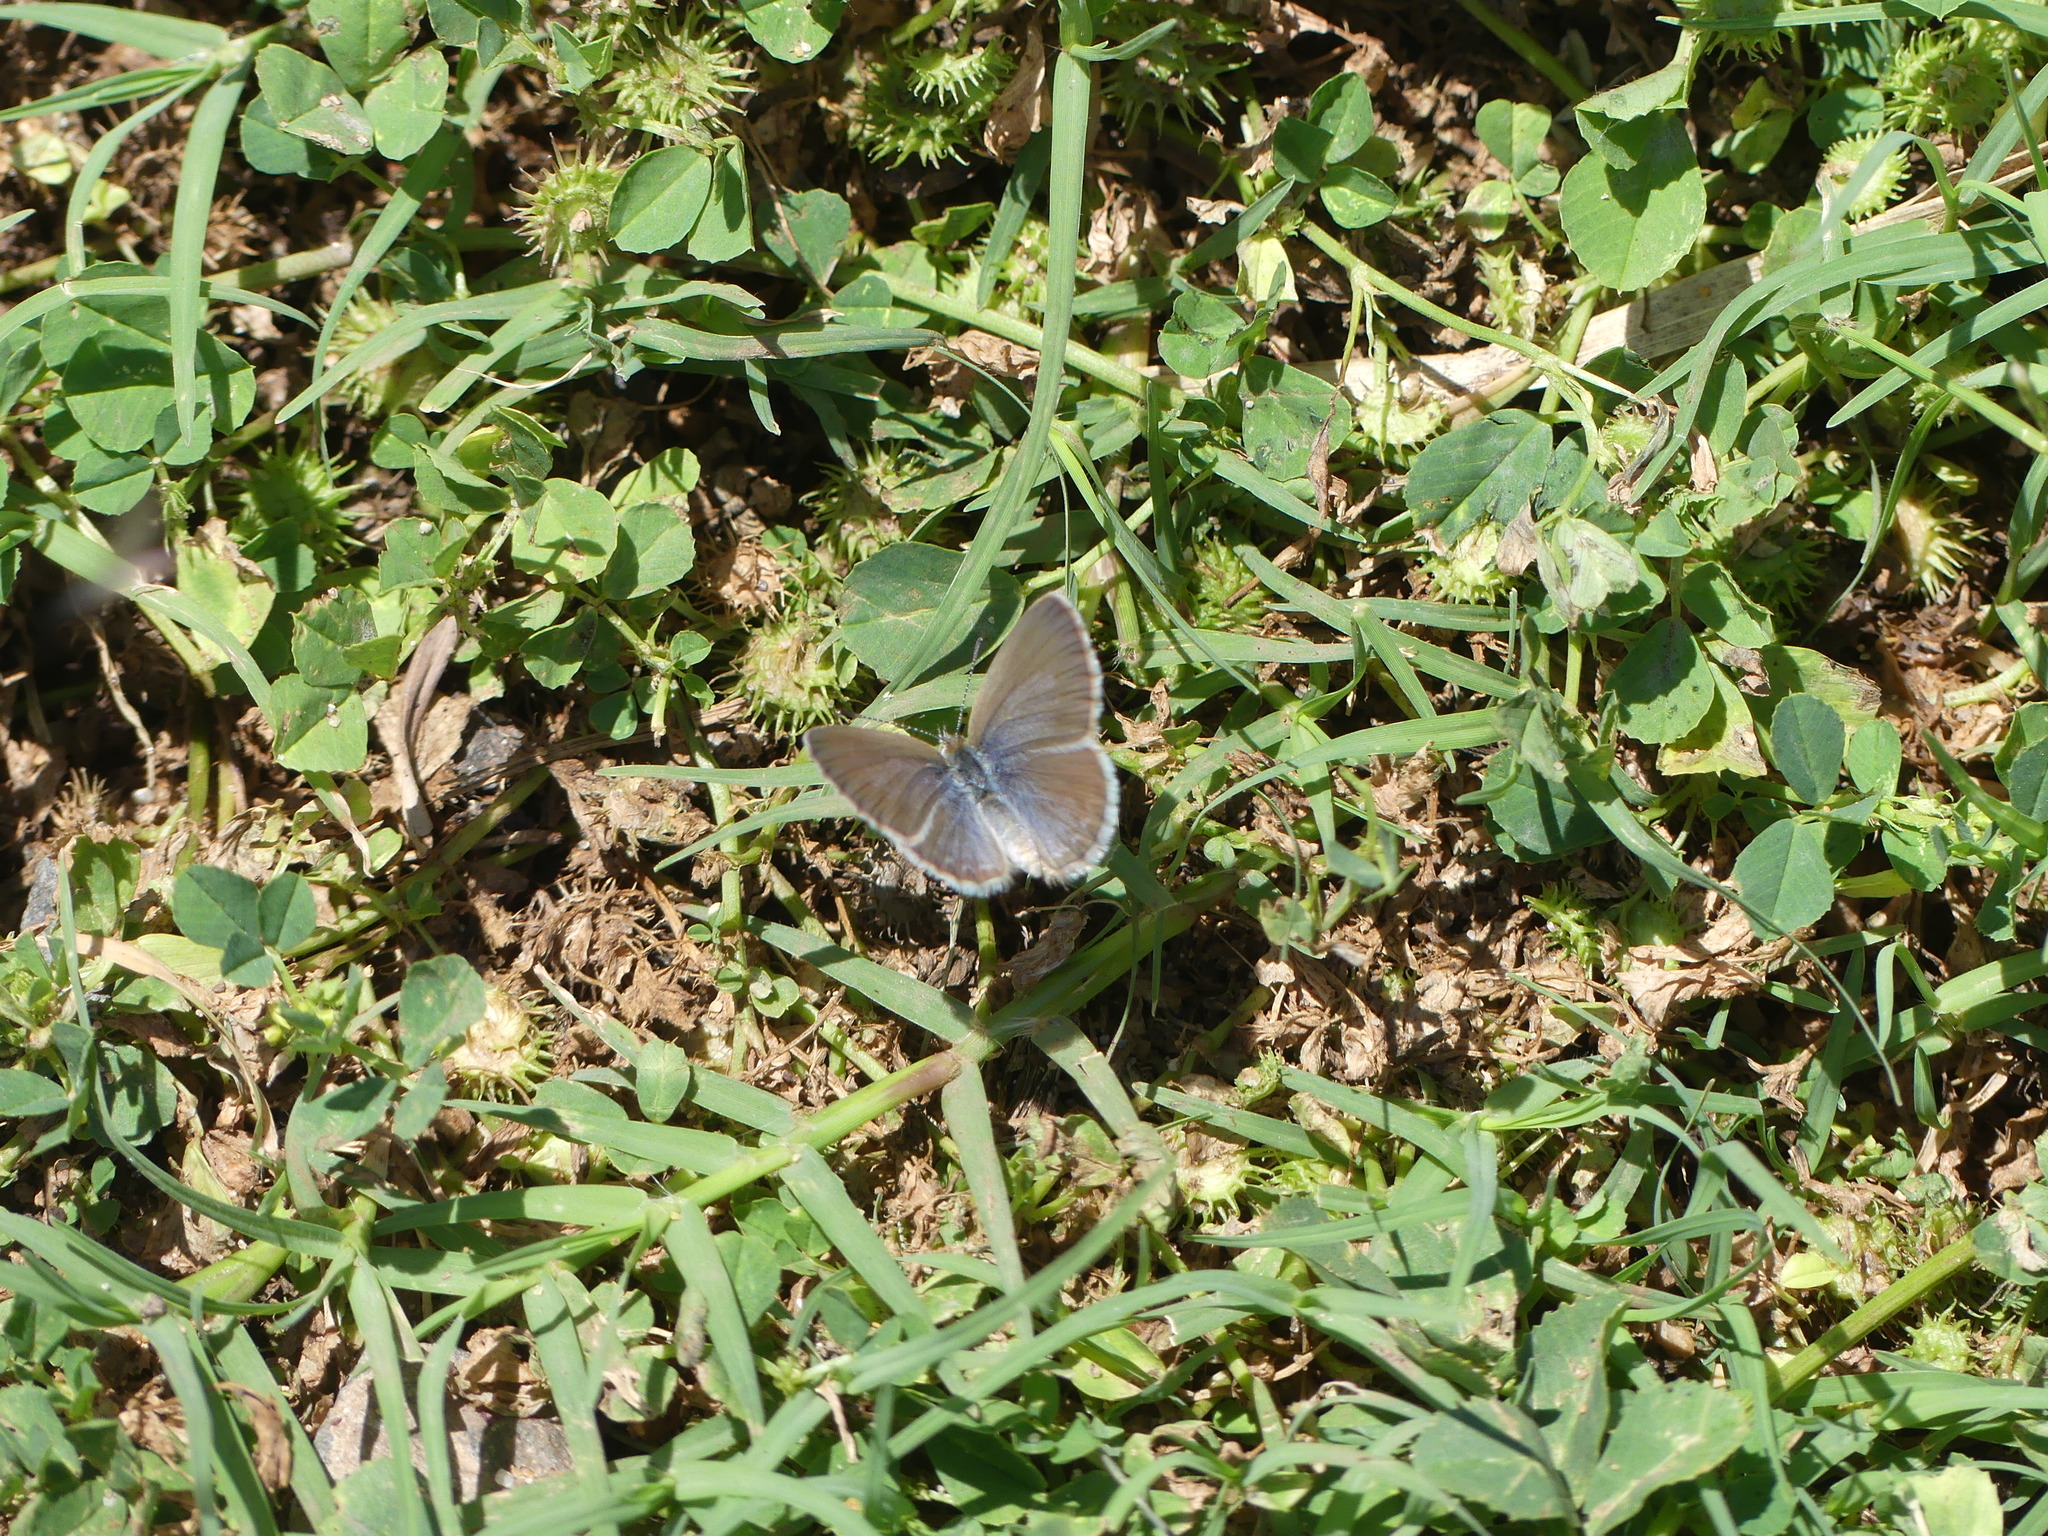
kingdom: Animalia
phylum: Arthropoda
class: Insecta
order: Lepidoptera
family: Lycaenidae
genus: Zizina
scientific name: Zizina labradus
